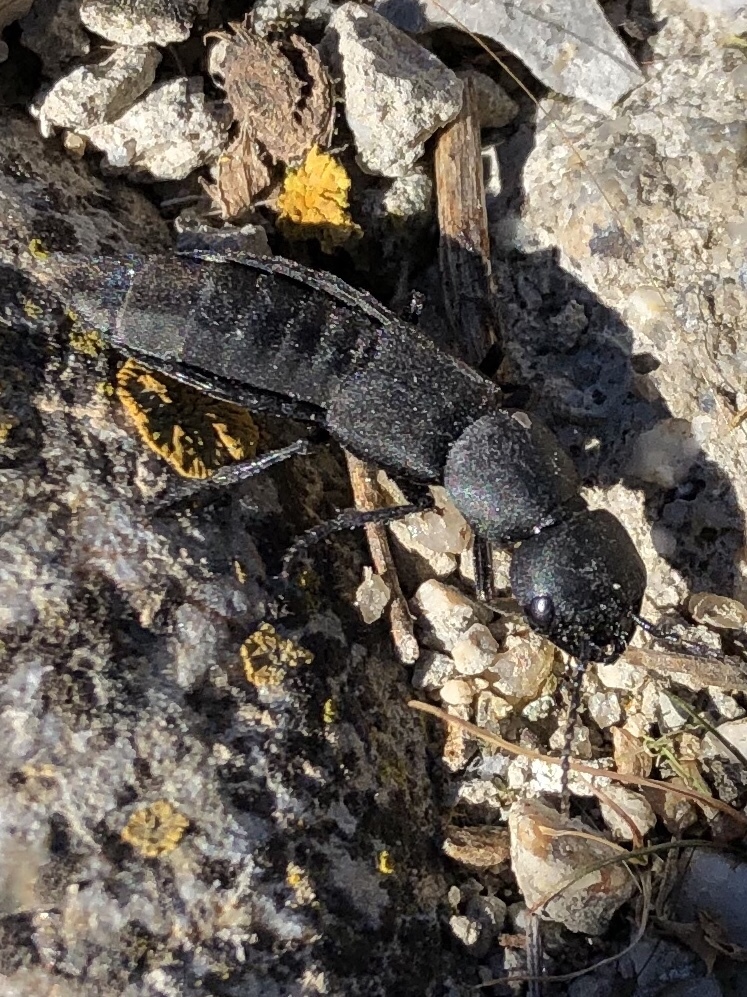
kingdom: Animalia
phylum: Arthropoda
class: Insecta
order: Coleoptera
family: Staphylinidae
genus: Ocypus
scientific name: Ocypus olens
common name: Devil's coach-horse
